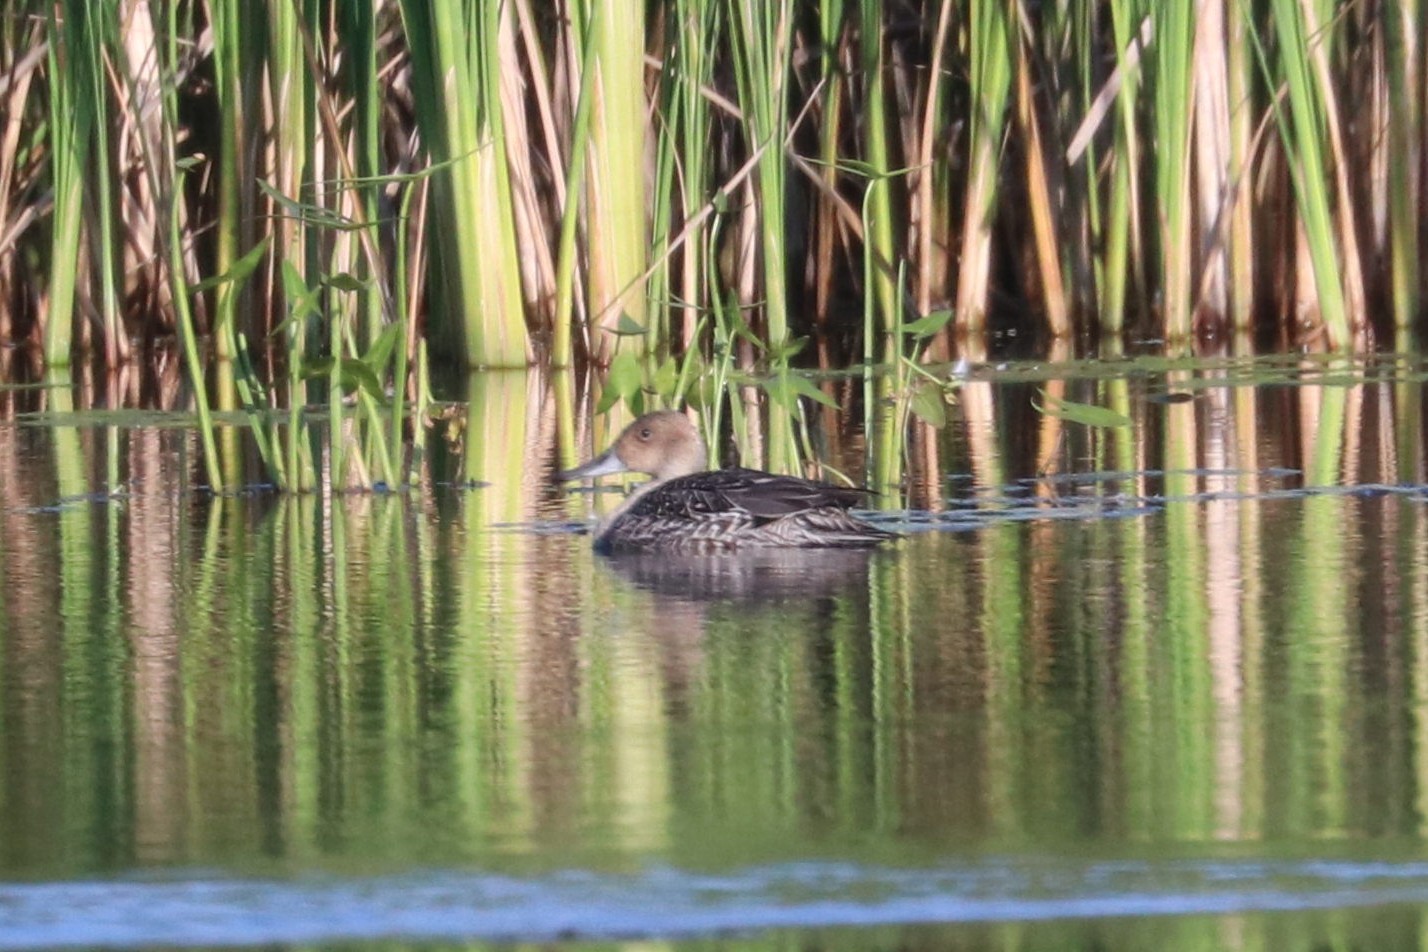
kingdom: Animalia
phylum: Chordata
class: Aves
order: Anseriformes
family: Anatidae
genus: Anas
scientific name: Anas acuta
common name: Northern pintail
